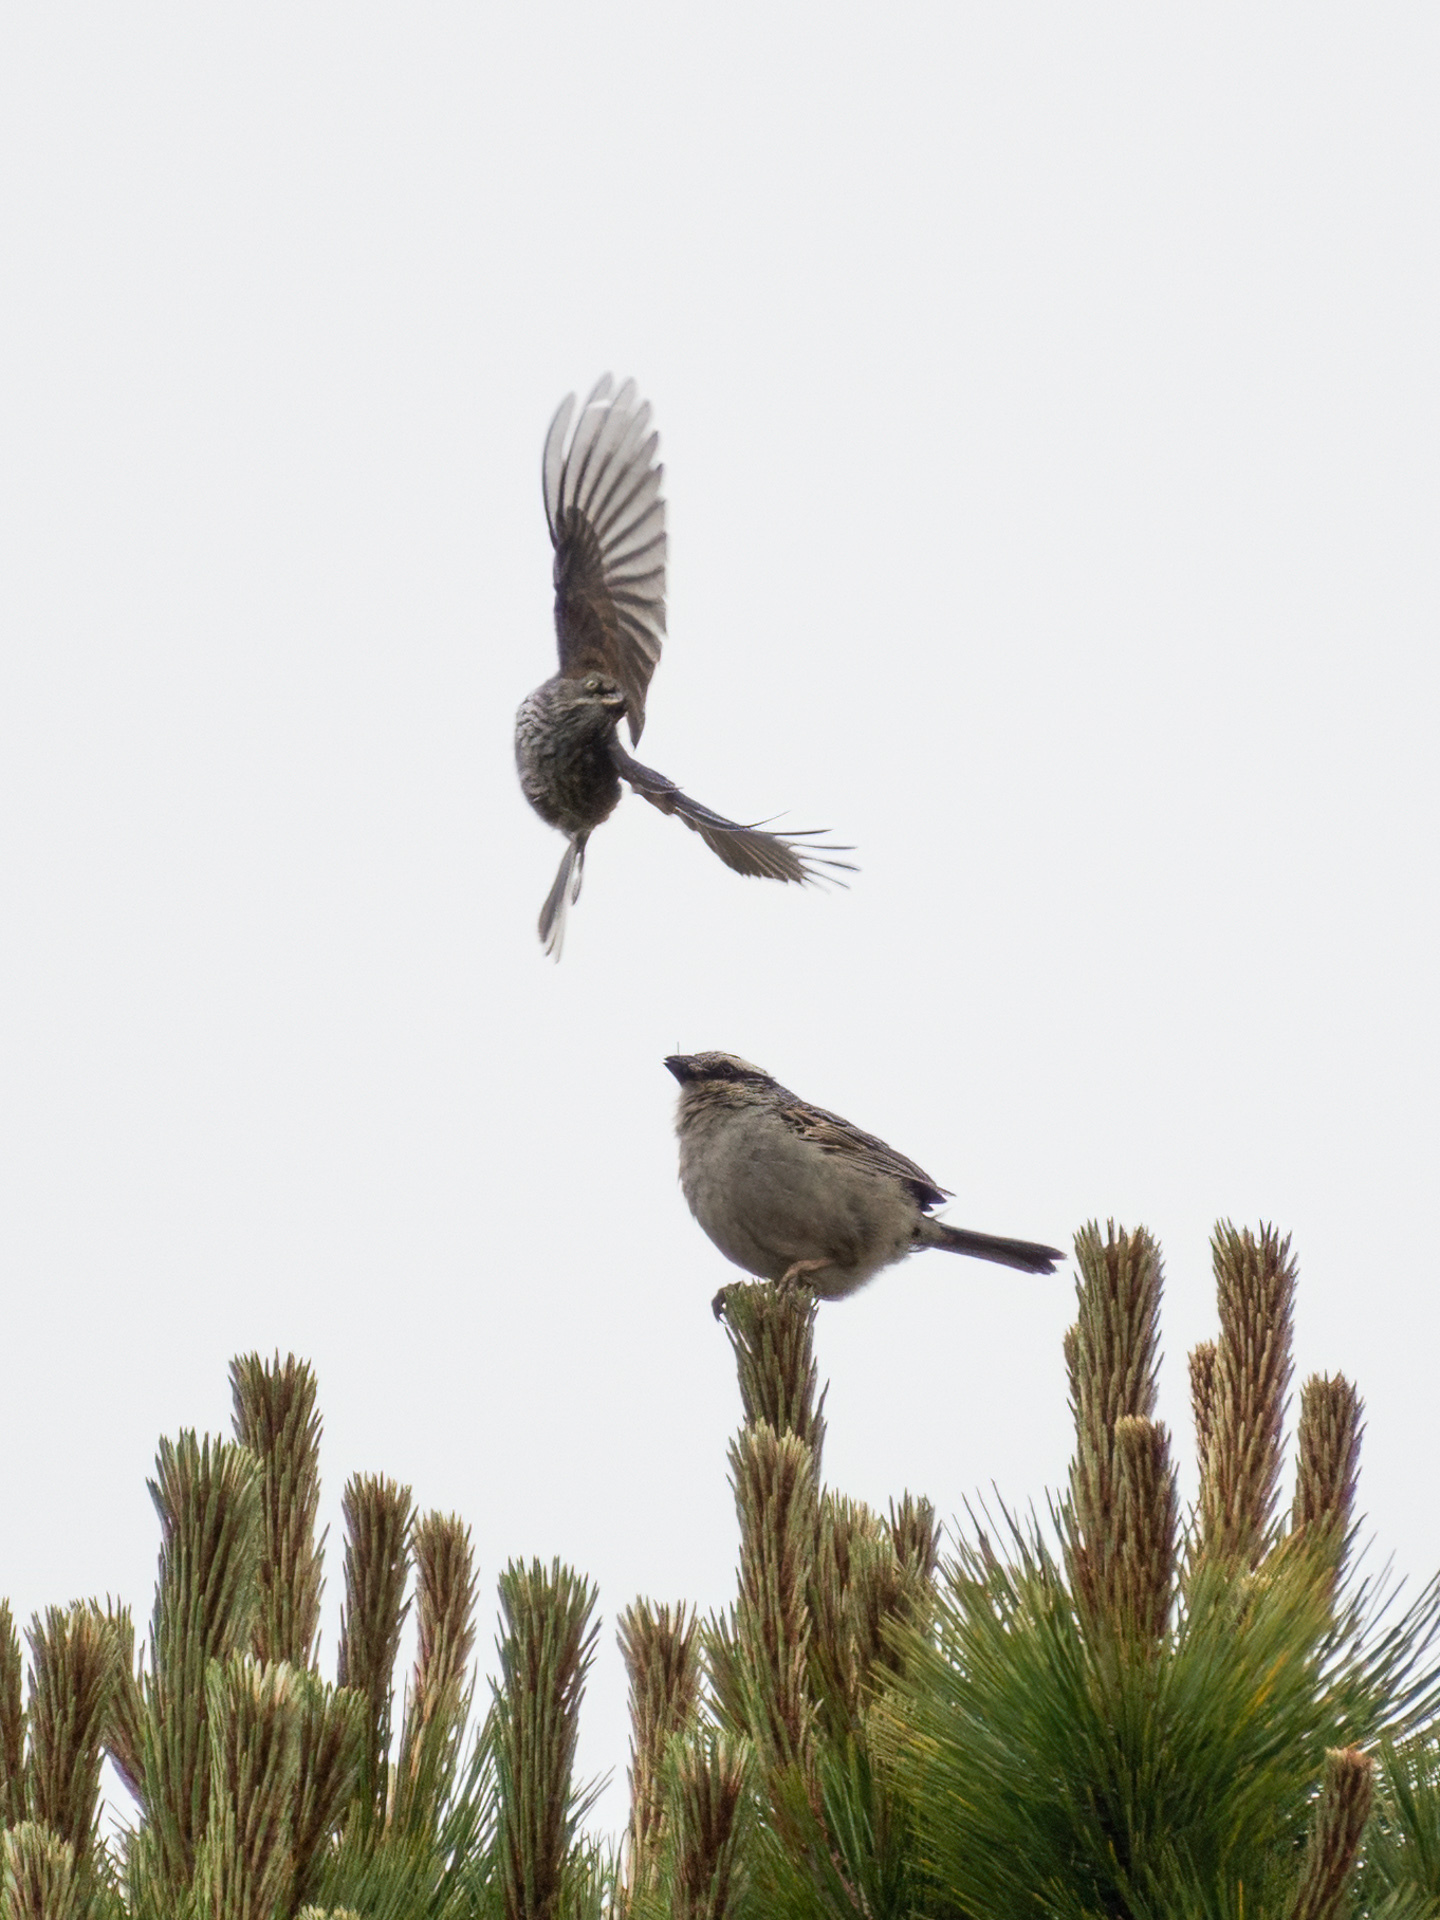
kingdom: Animalia
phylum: Chordata
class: Aves
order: Passeriformes
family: Passerellidae
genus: Oriturus
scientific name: Oriturus superciliosus
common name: Striped sparrow
